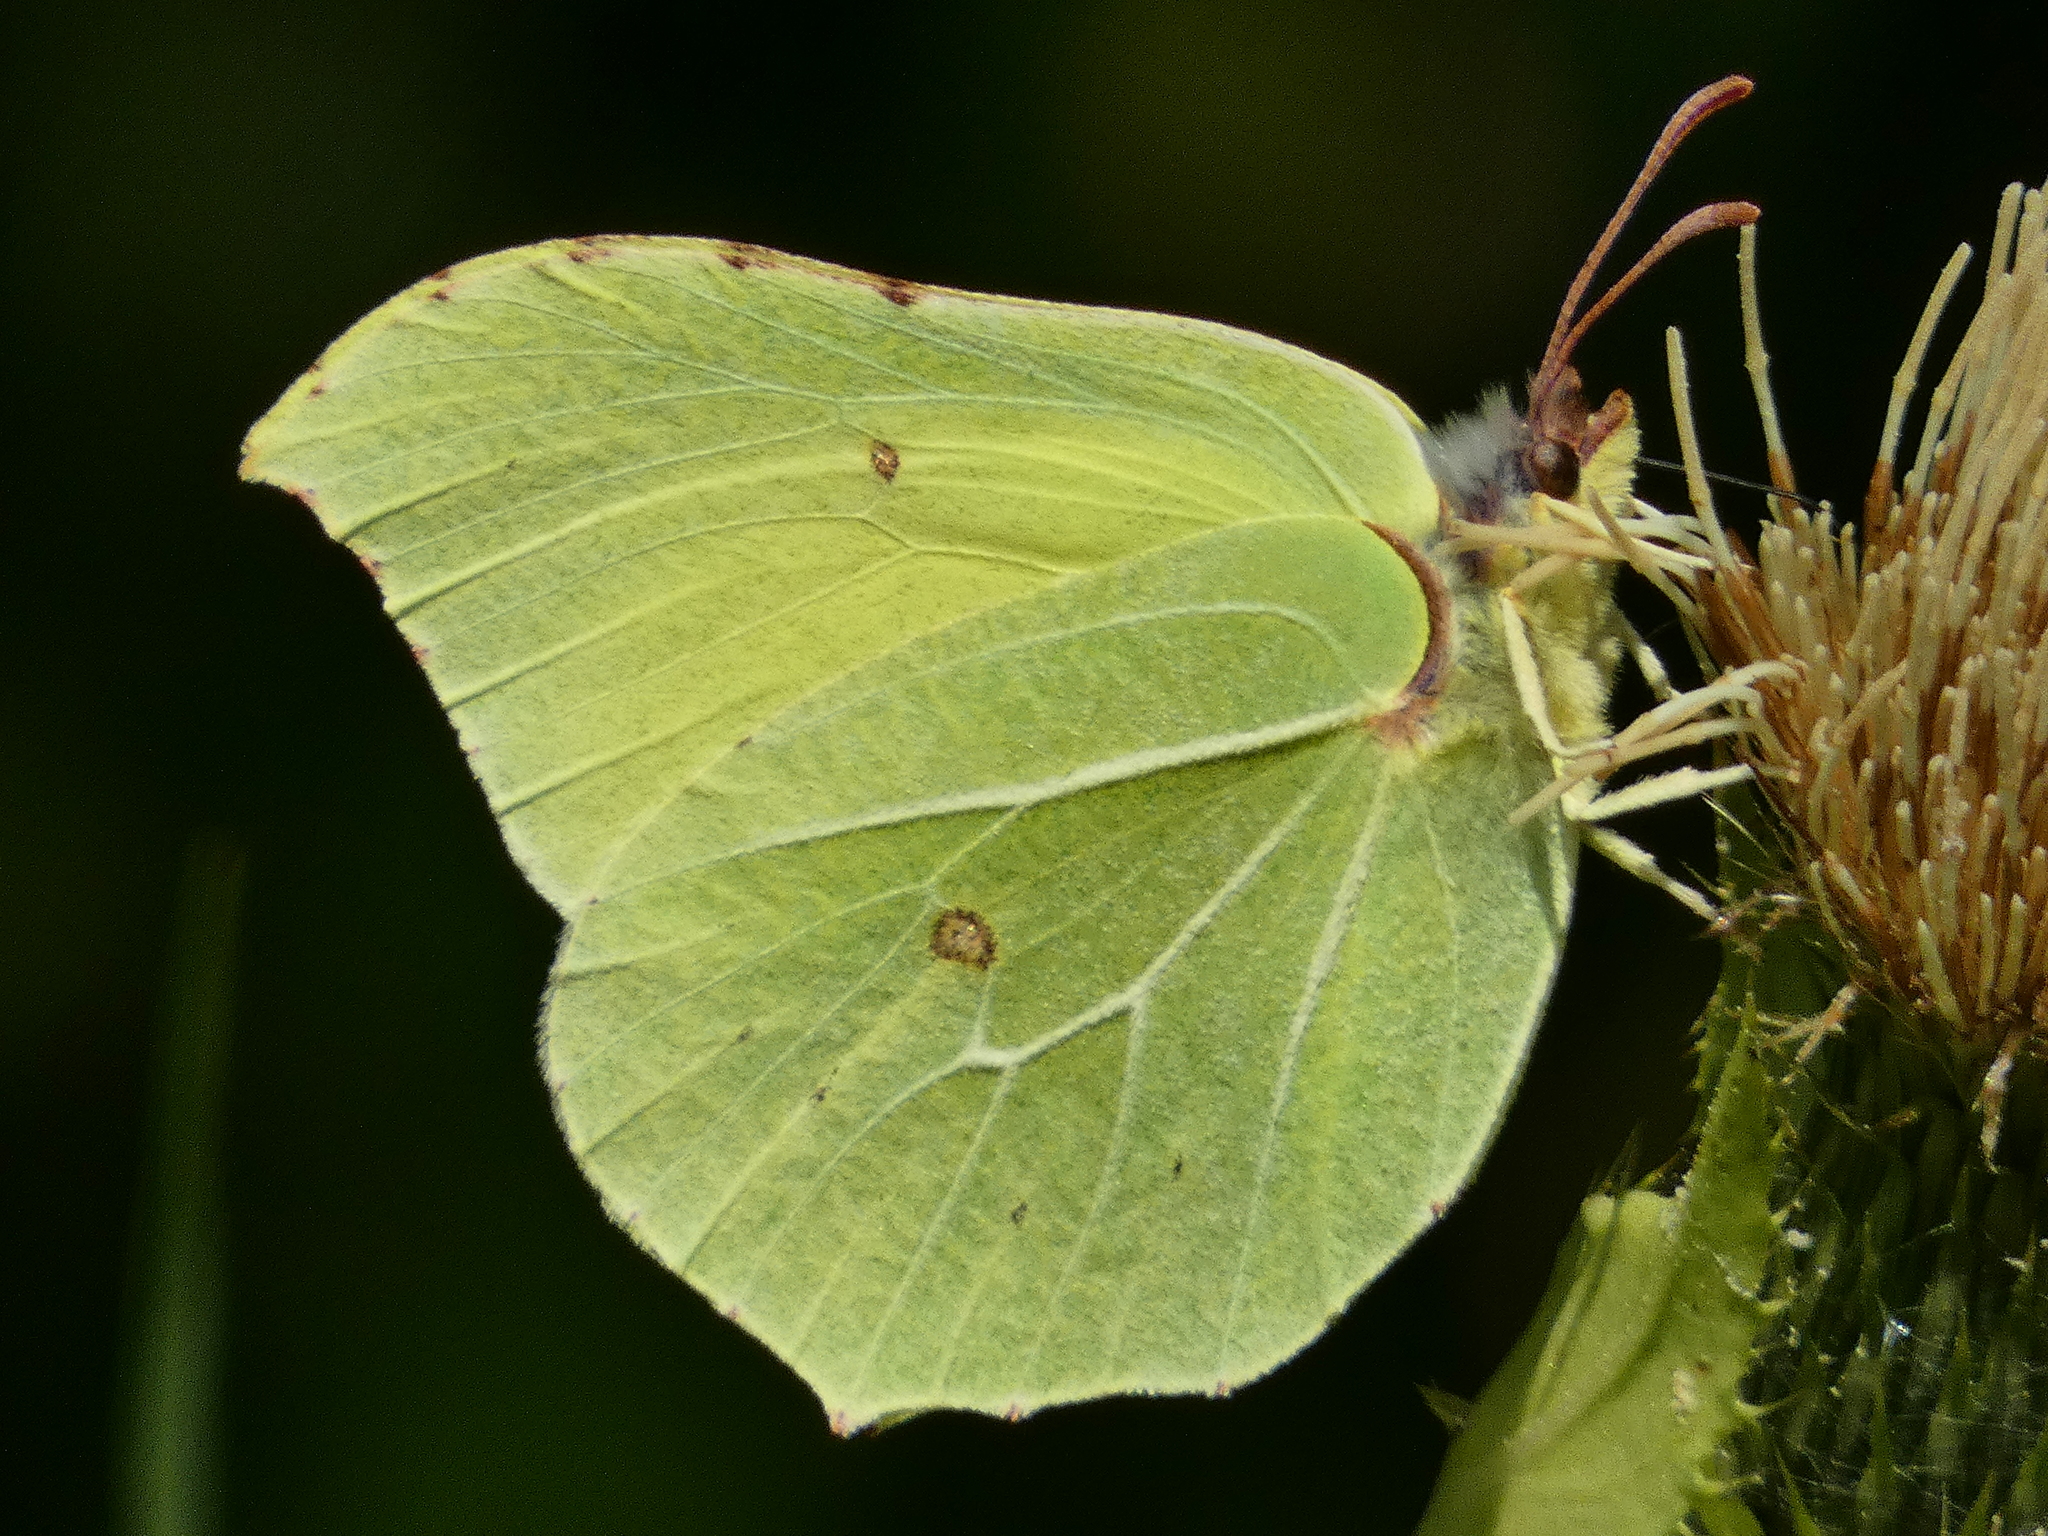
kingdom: Animalia
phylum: Arthropoda
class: Insecta
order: Lepidoptera
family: Pieridae
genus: Gonepteryx
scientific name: Gonepteryx rhamni
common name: Brimstone
